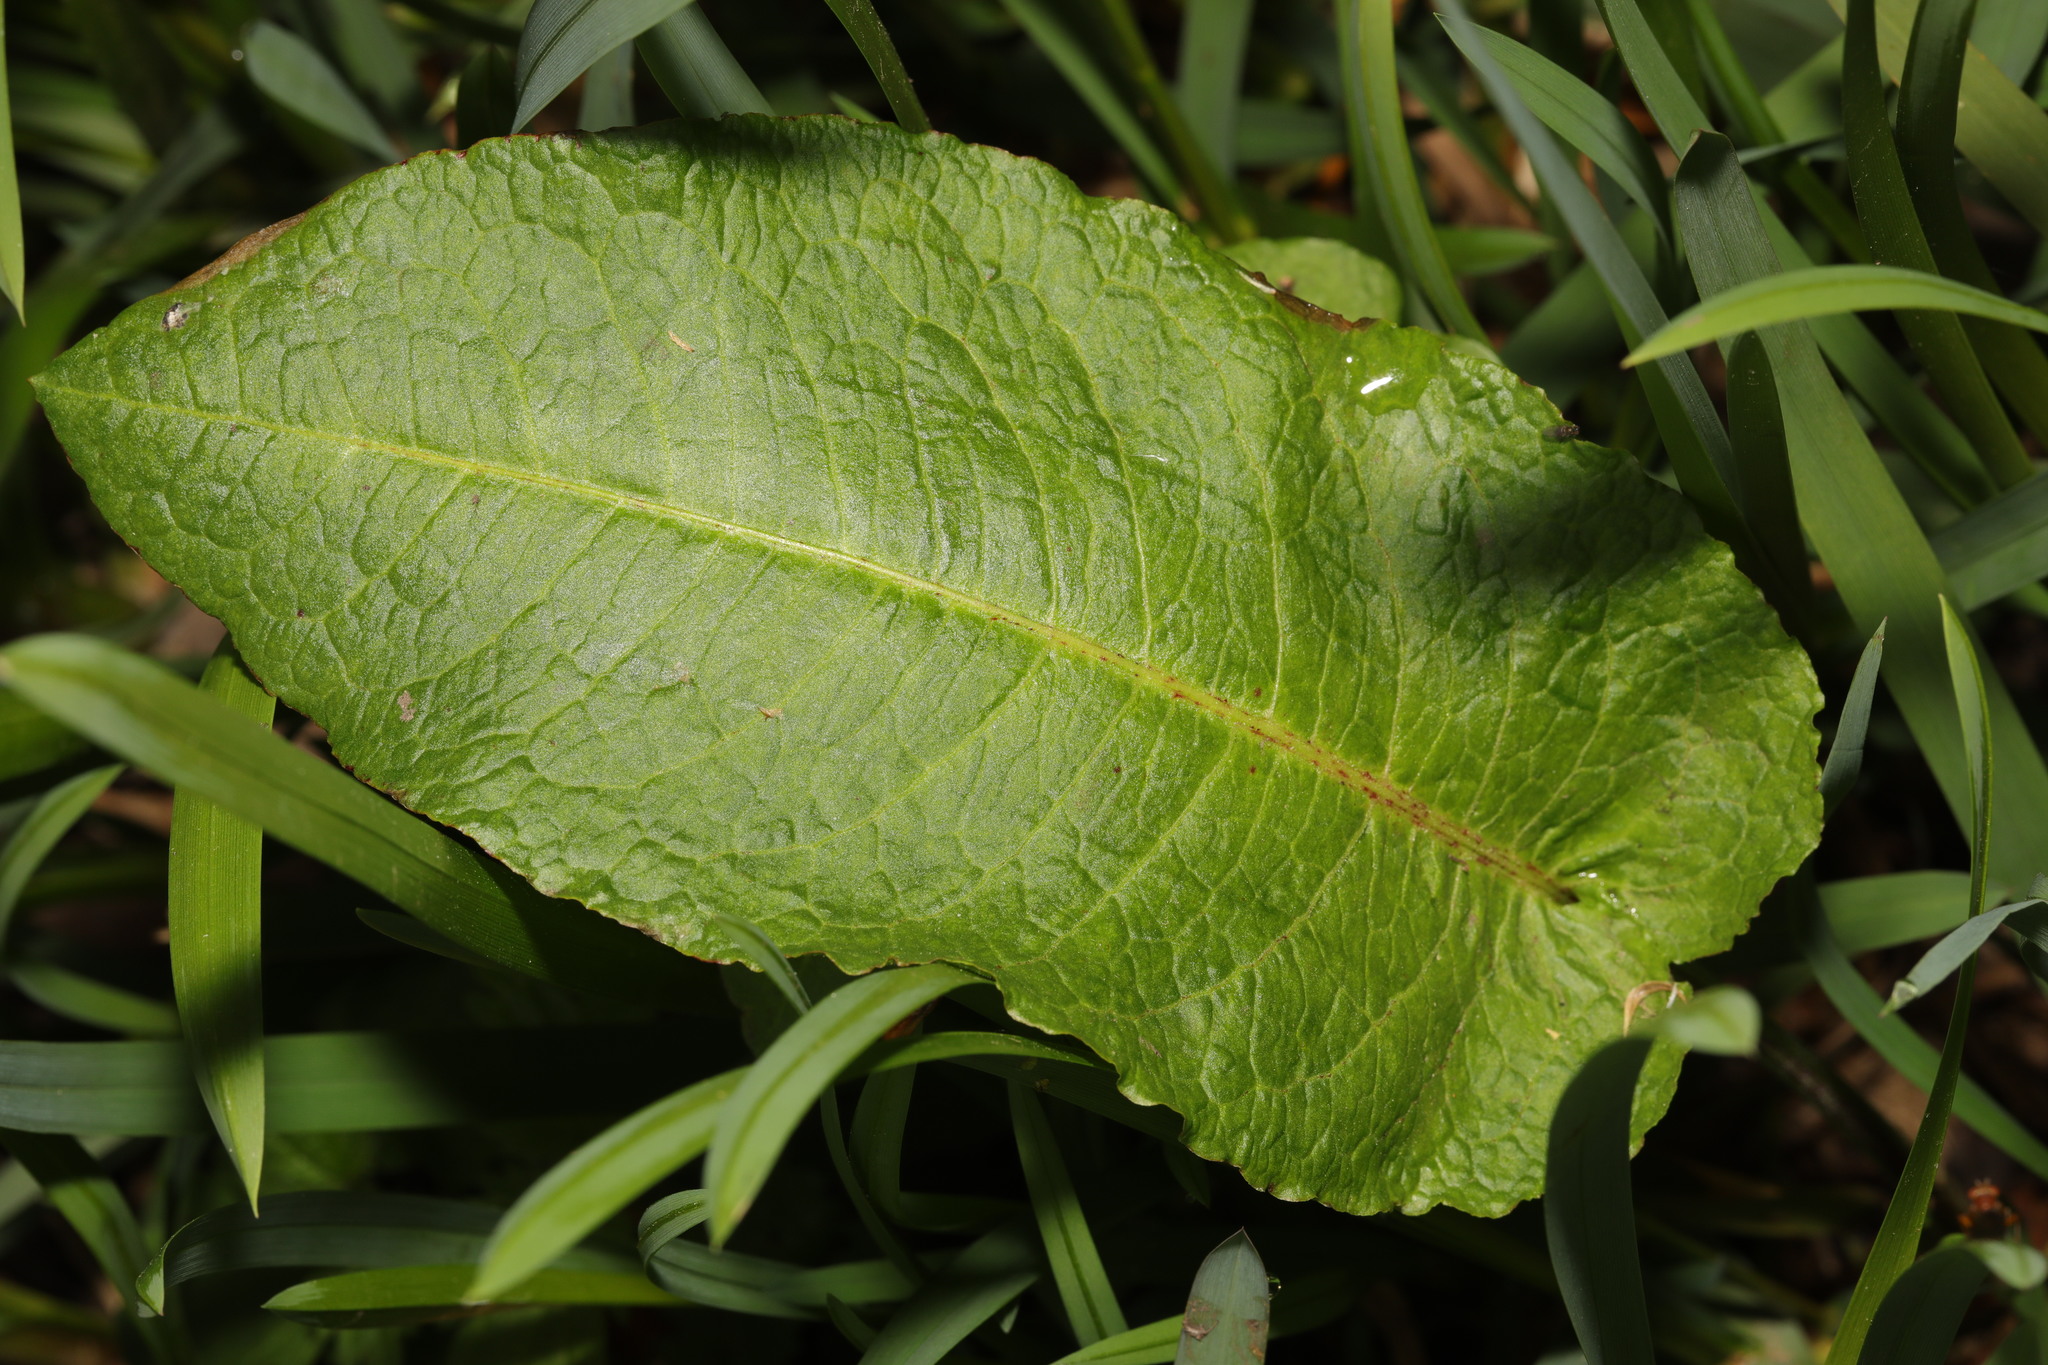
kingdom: Plantae
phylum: Tracheophyta
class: Magnoliopsida
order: Caryophyllales
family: Polygonaceae
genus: Rumex
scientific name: Rumex obtusifolius
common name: Bitter dock
